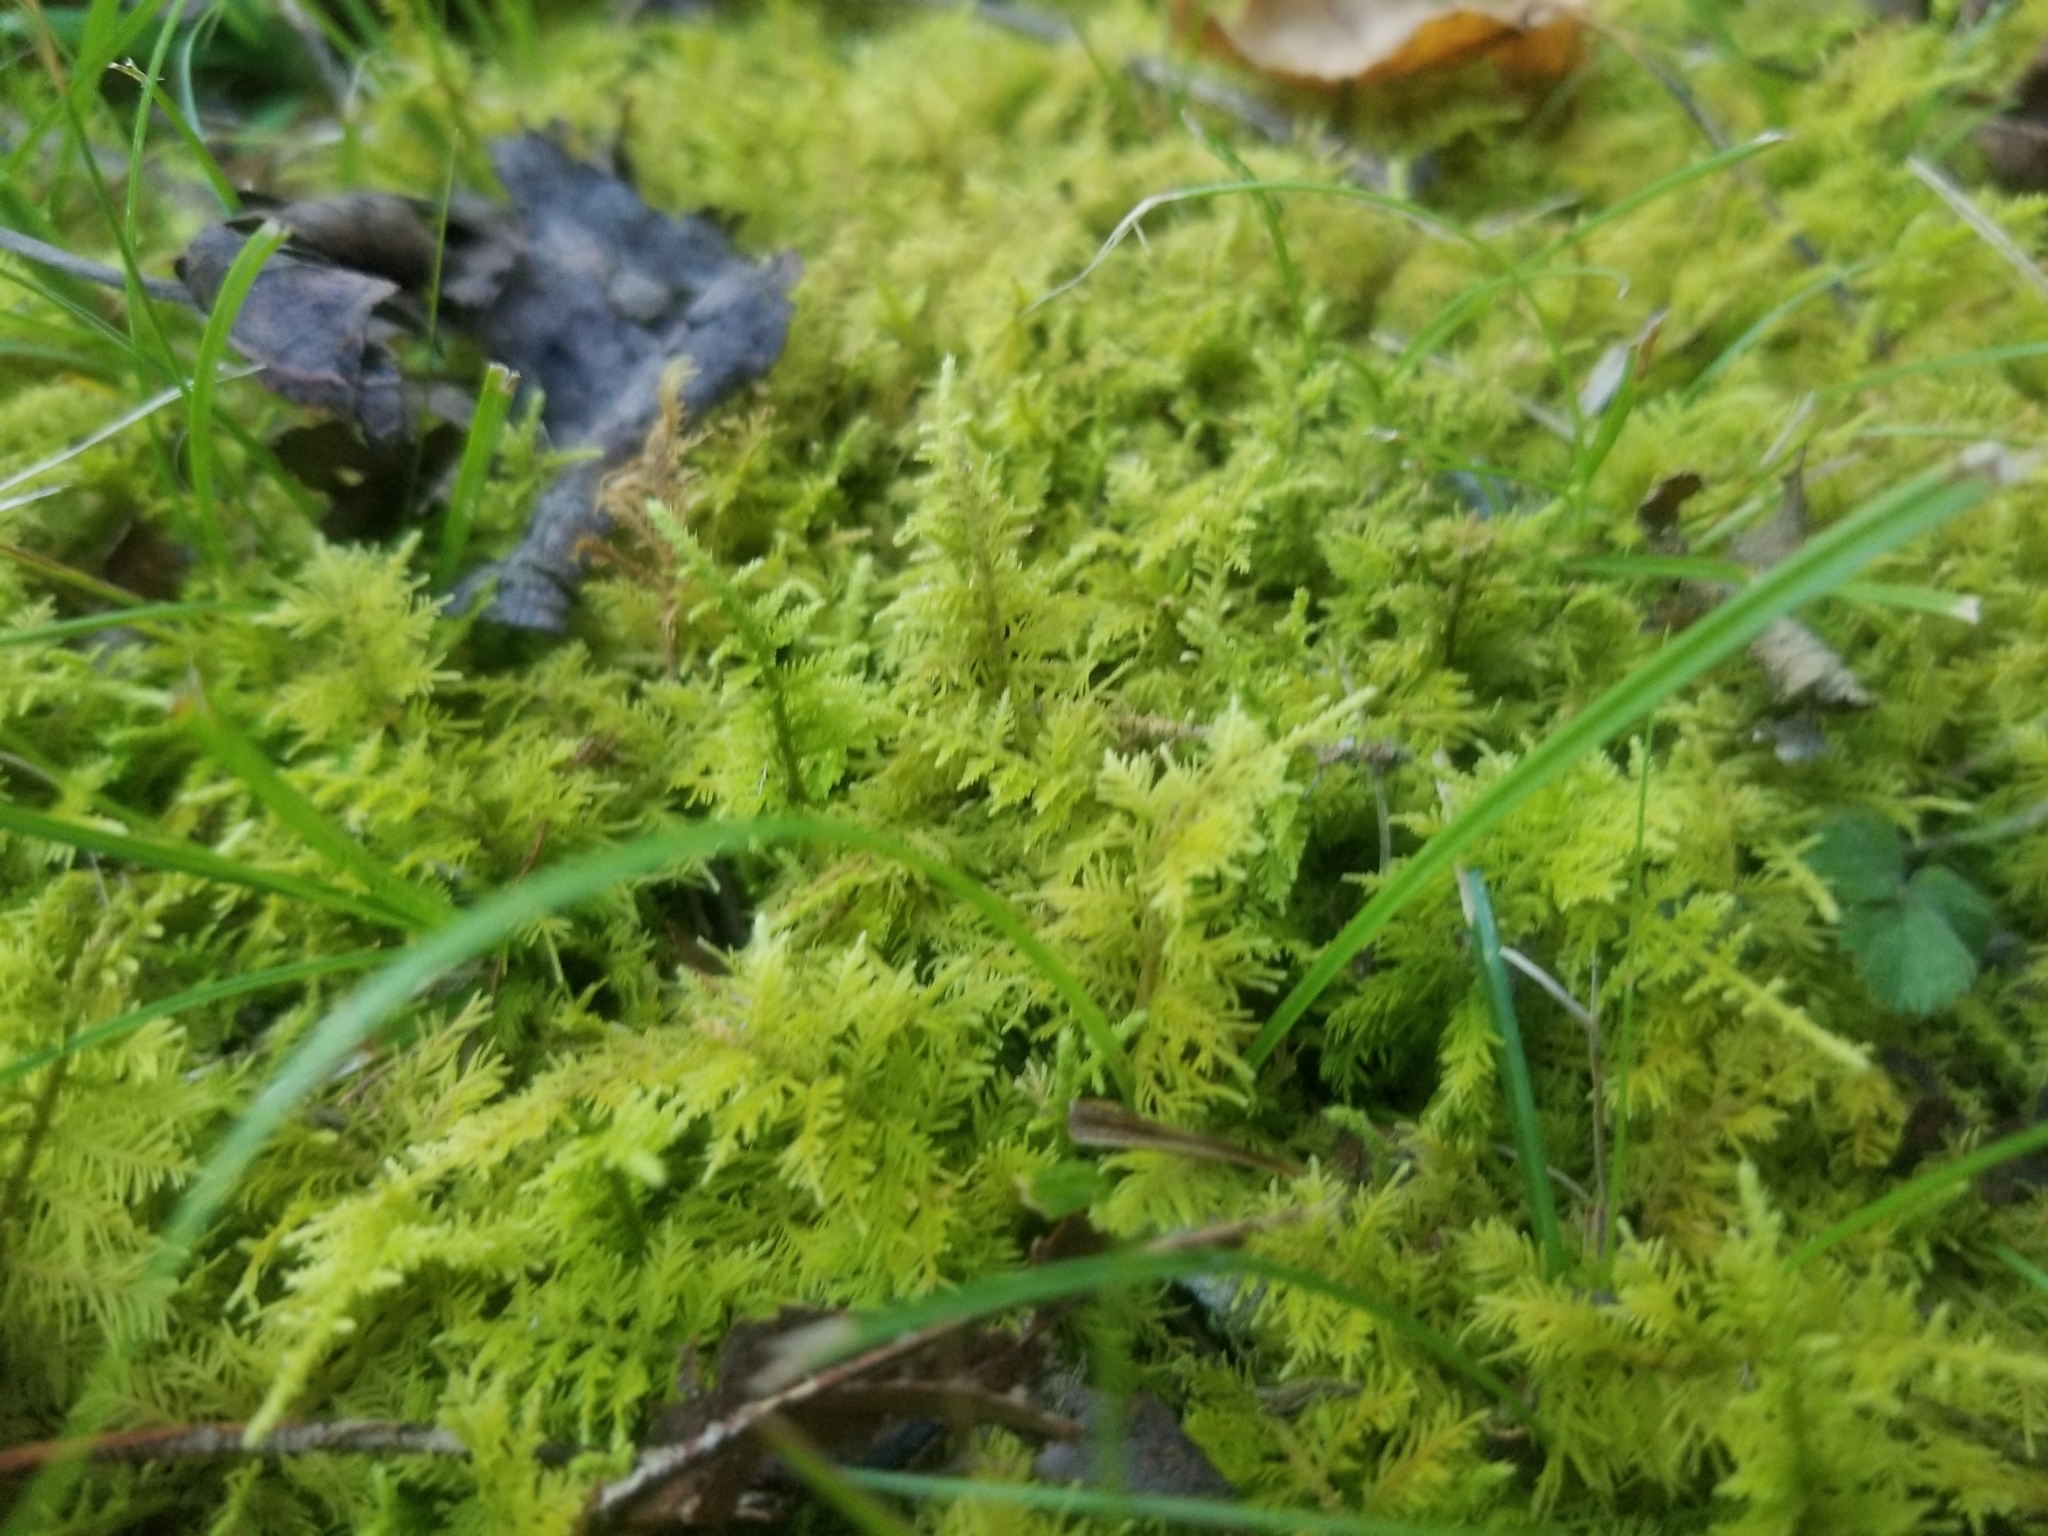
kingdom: Plantae
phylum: Bryophyta
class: Bryopsida
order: Hypnales
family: Thuidiaceae
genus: Thuidium
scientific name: Thuidium delicatulum
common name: Delicate fern moss
